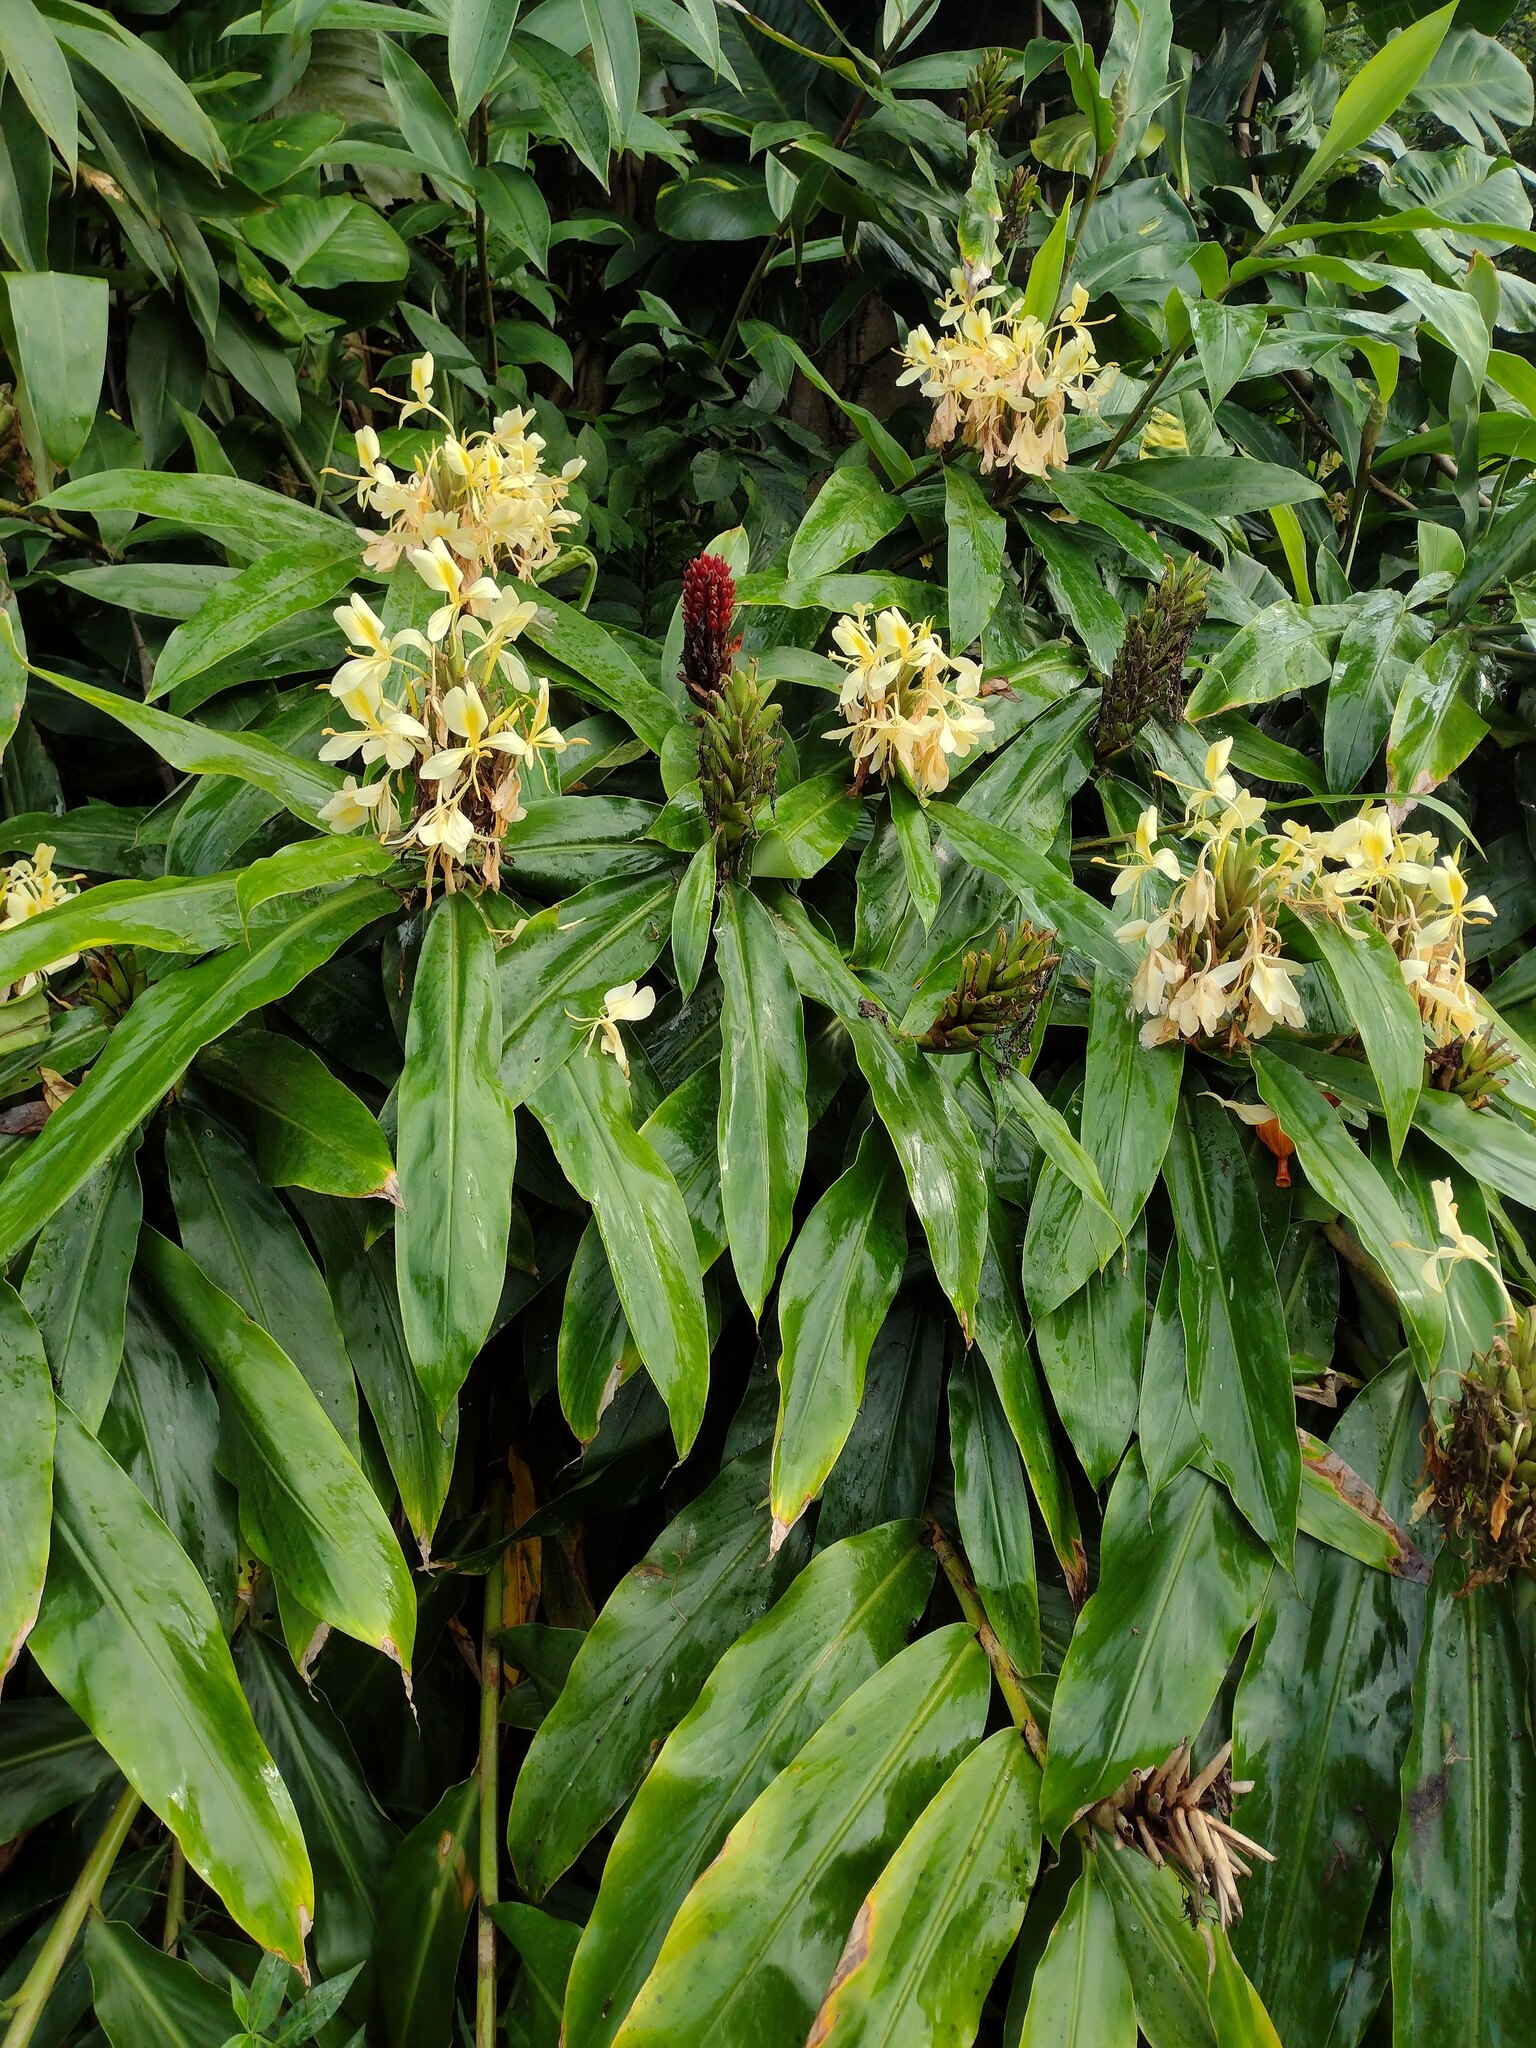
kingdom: Plantae
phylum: Tracheophyta
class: Liliopsida
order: Zingiberales
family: Zingiberaceae
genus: Hedychium
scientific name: Hedychium flavescens
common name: Yellow ginger
